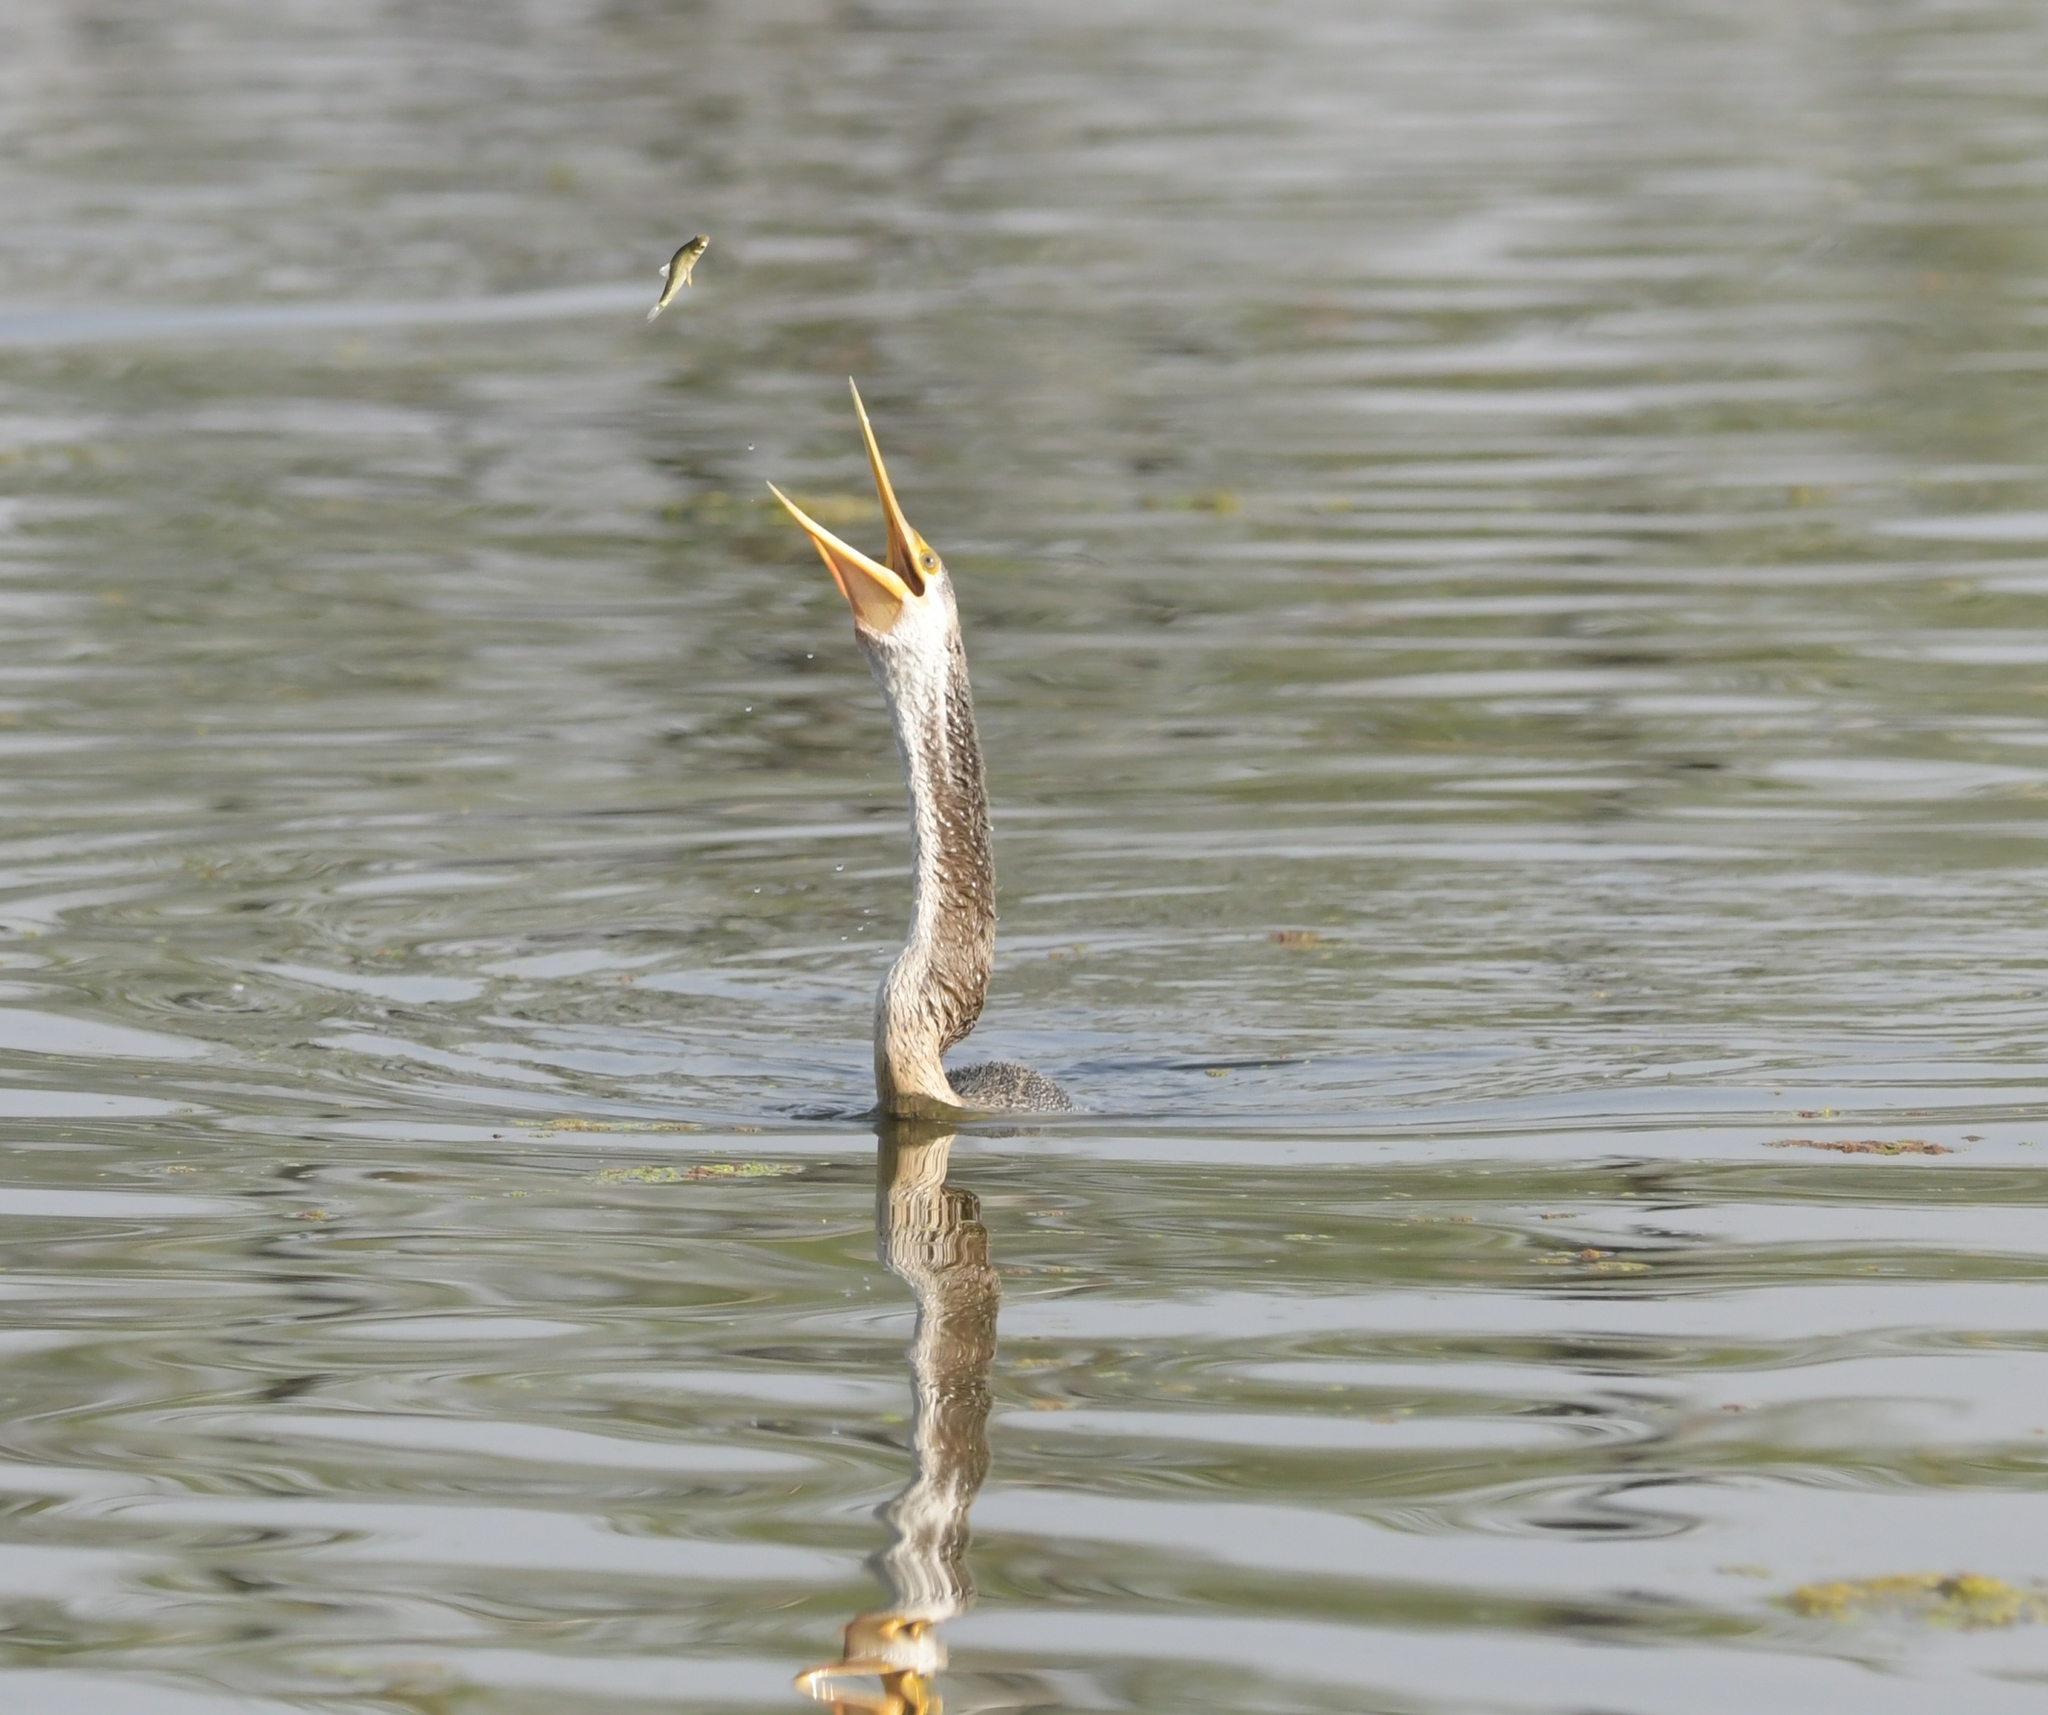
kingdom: Animalia
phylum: Chordata
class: Aves
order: Suliformes
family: Anhingidae
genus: Anhinga
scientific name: Anhinga melanogaster
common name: Oriental darter
